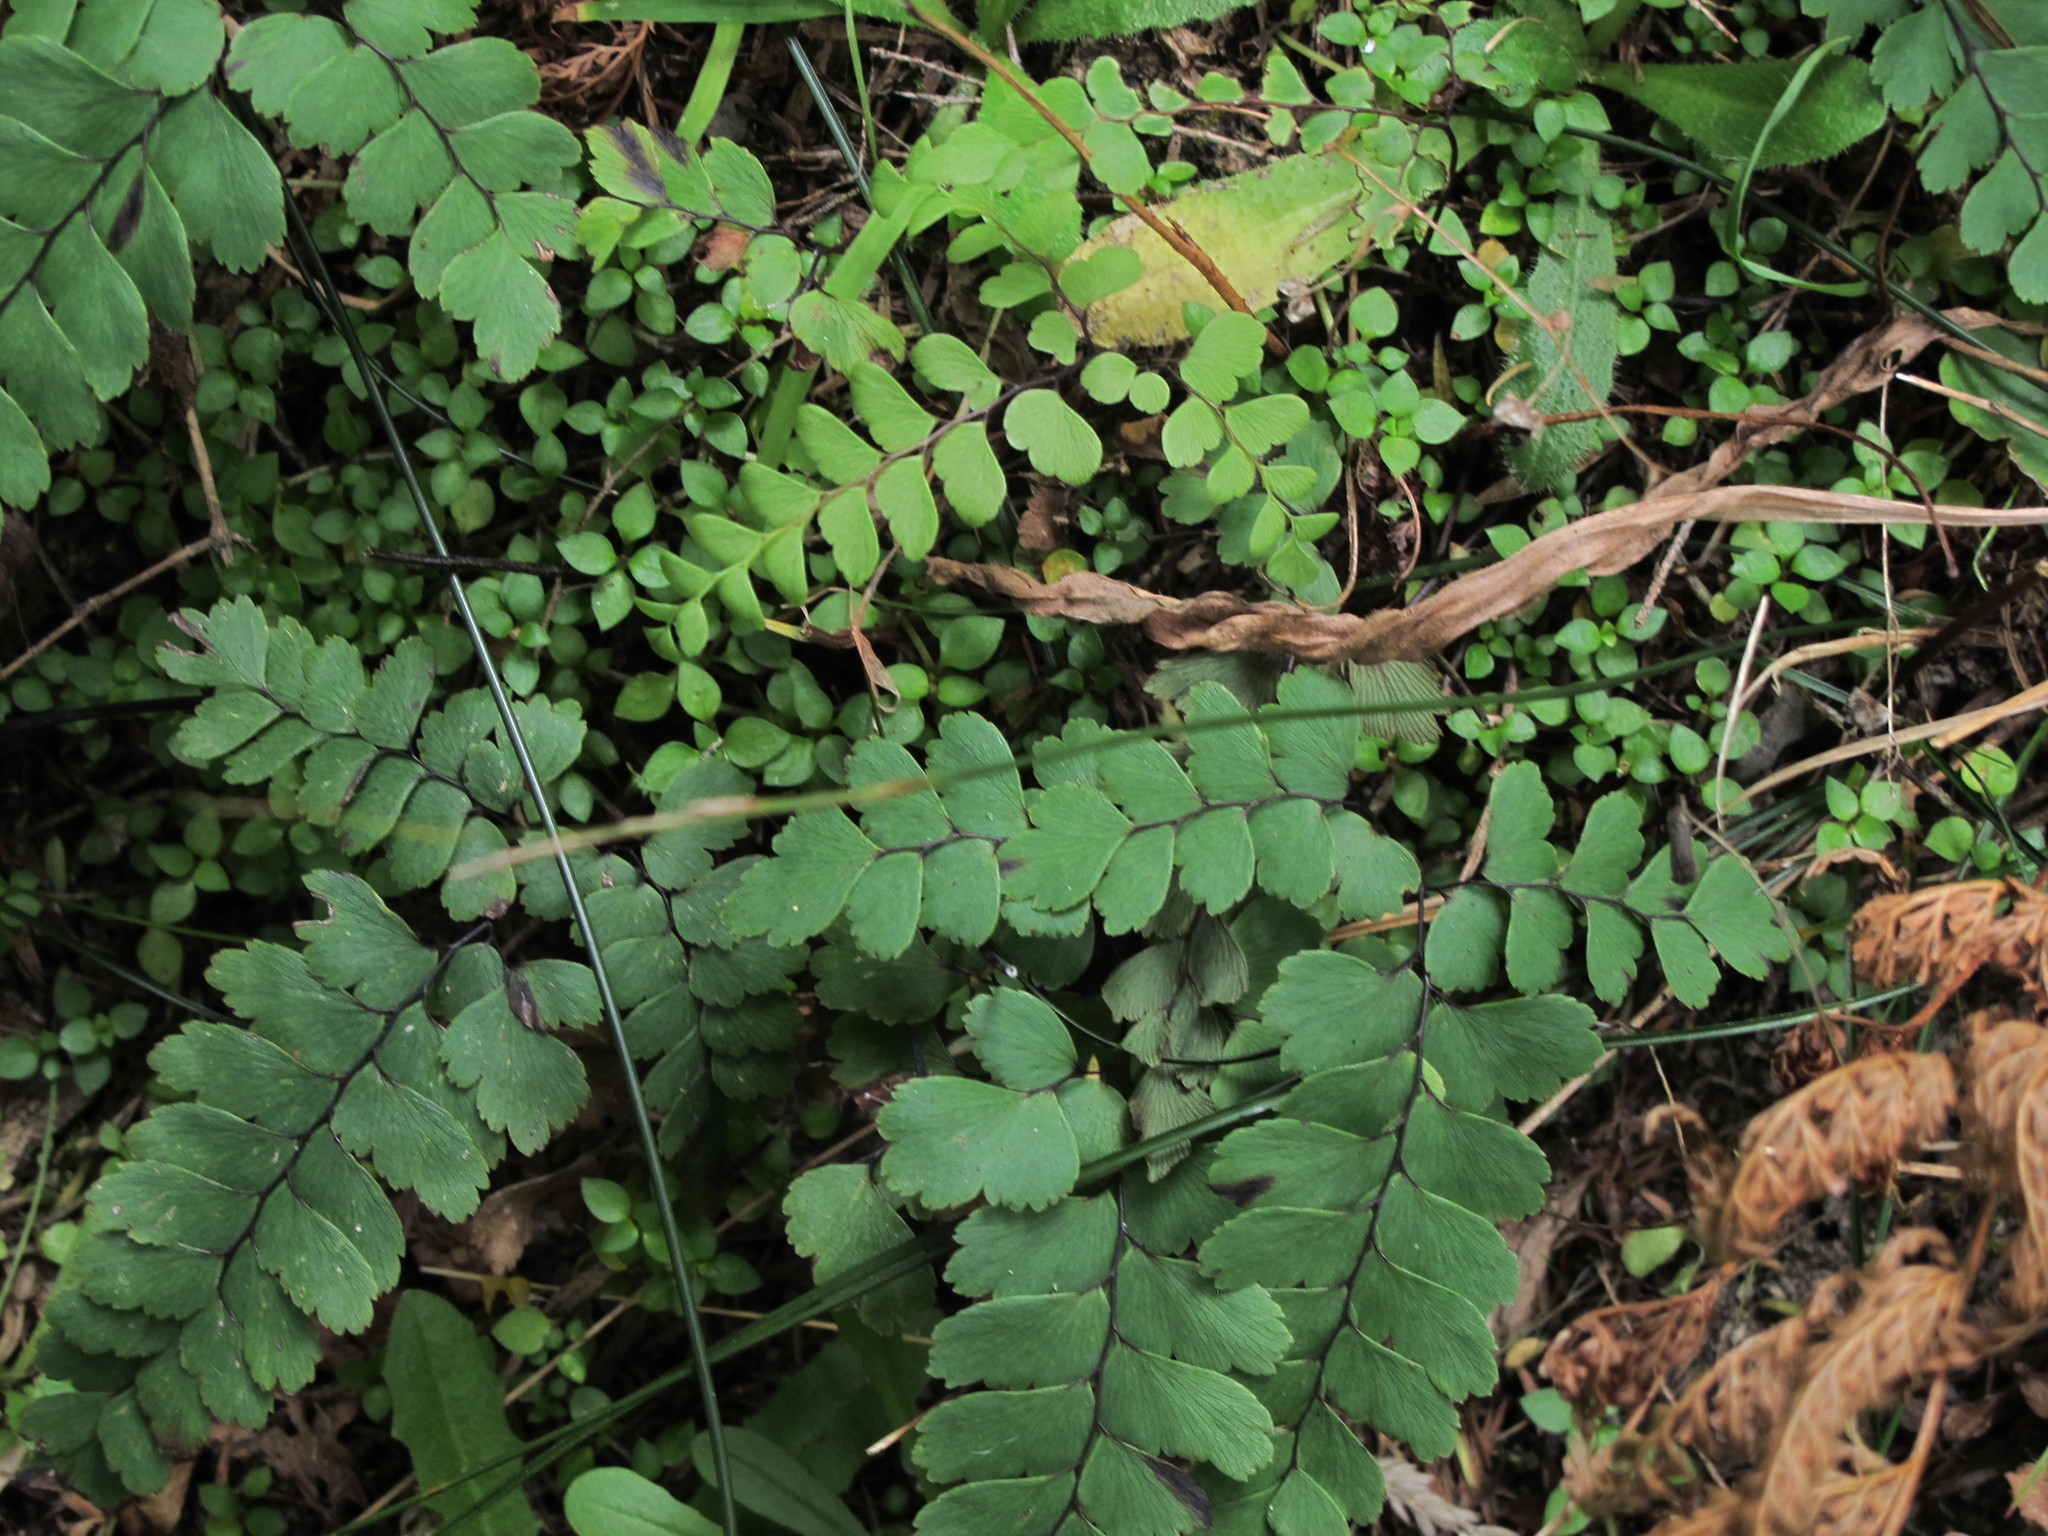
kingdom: Plantae
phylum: Tracheophyta
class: Polypodiopsida
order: Polypodiales
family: Pteridaceae
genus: Adiantum
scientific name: Adiantum cunninghamii
